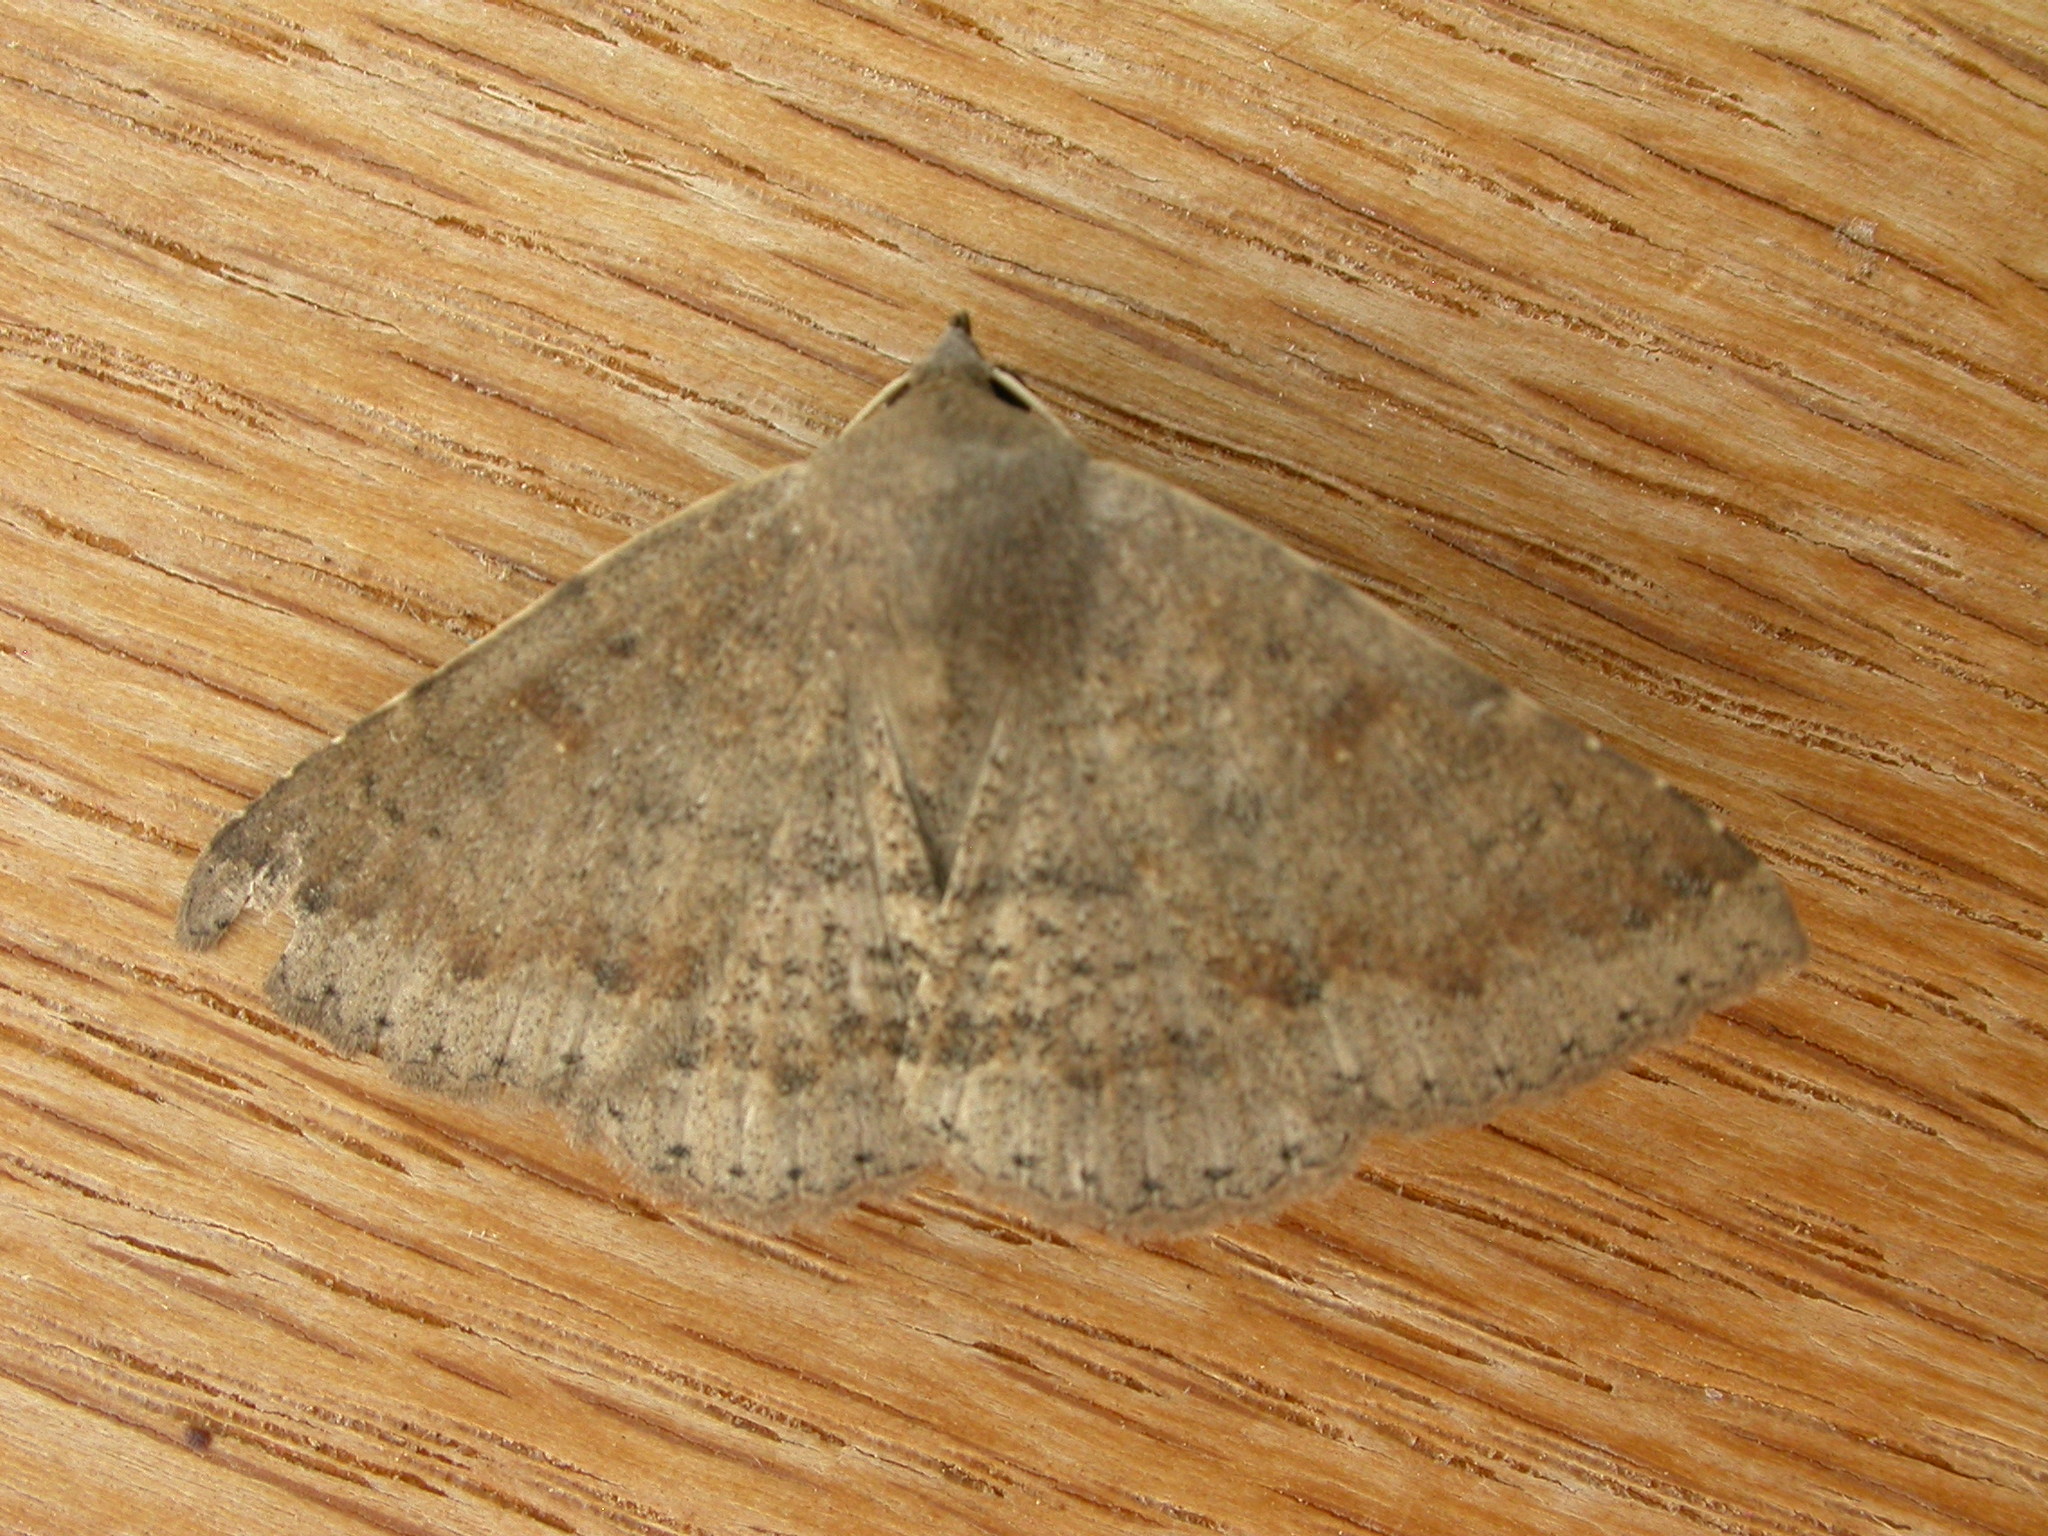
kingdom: Animalia
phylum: Arthropoda
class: Insecta
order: Lepidoptera
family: Erebidae
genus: Ericeia
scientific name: Ericeia subsignata
